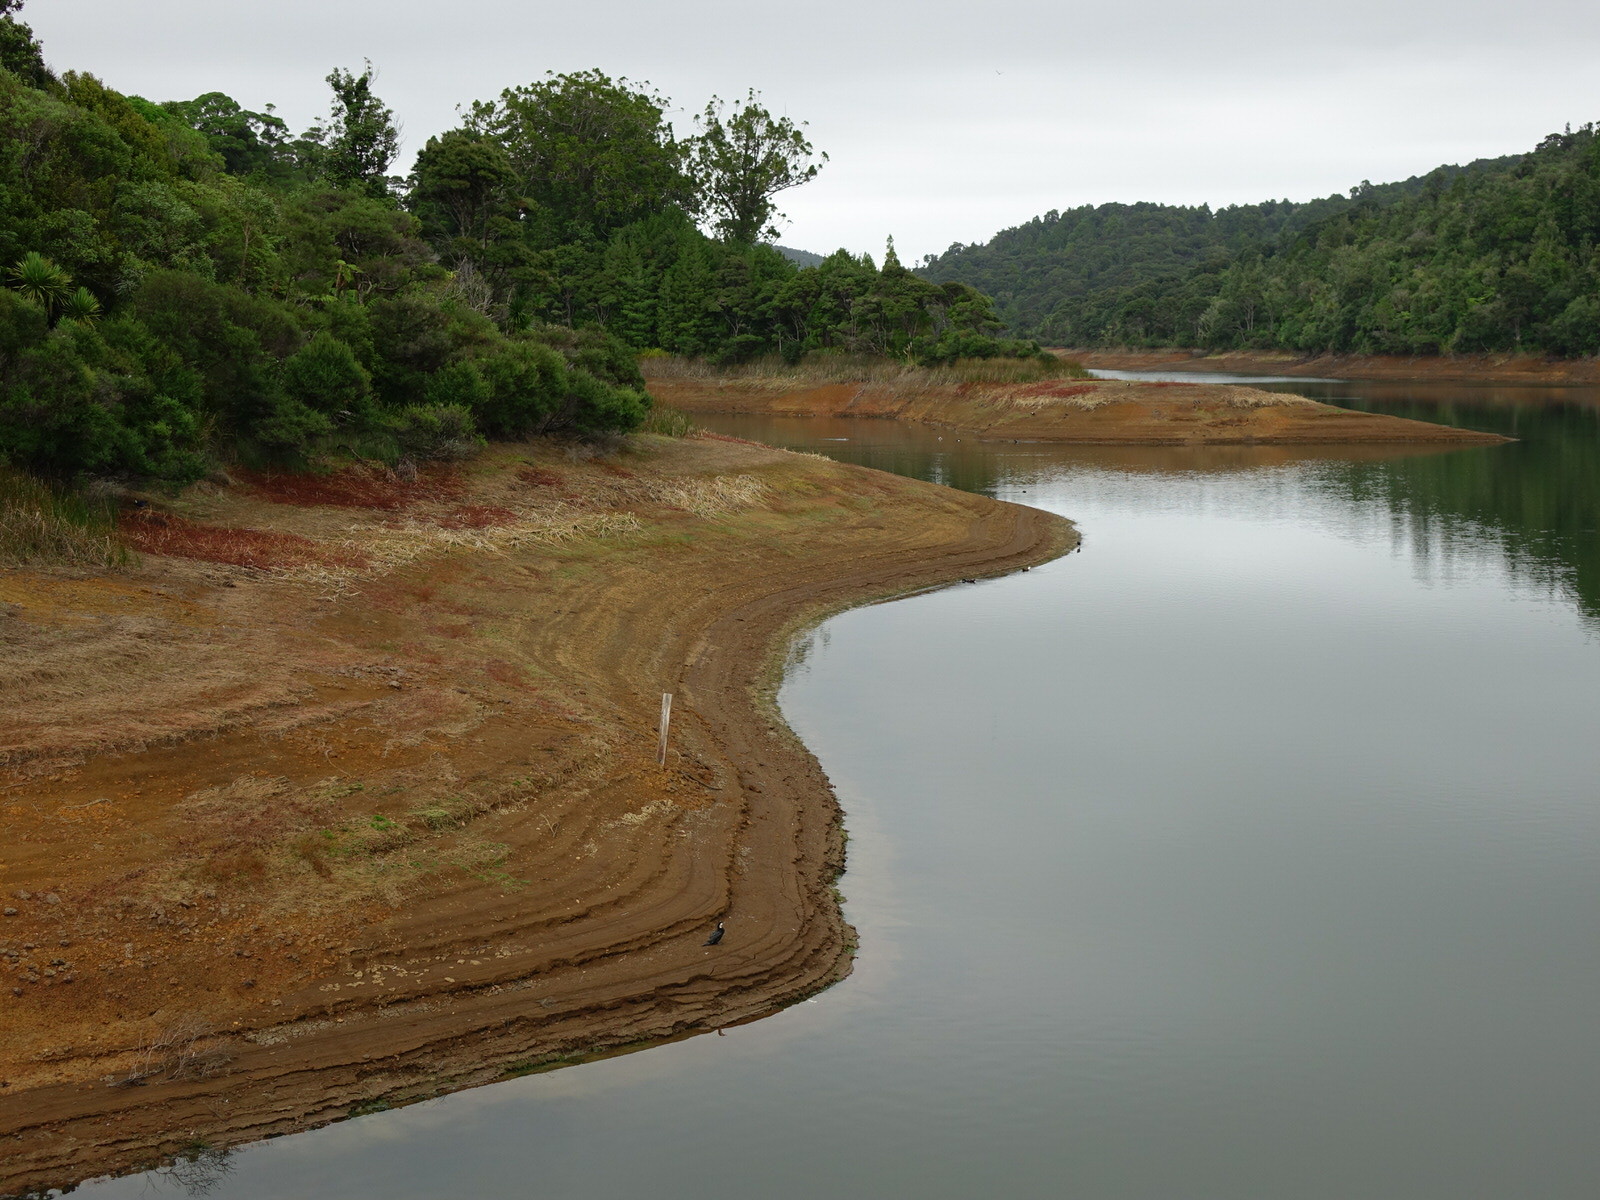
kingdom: Animalia
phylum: Chordata
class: Aves
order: Suliformes
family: Phalacrocoracidae
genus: Microcarbo
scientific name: Microcarbo melanoleucos
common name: Little pied cormorant
